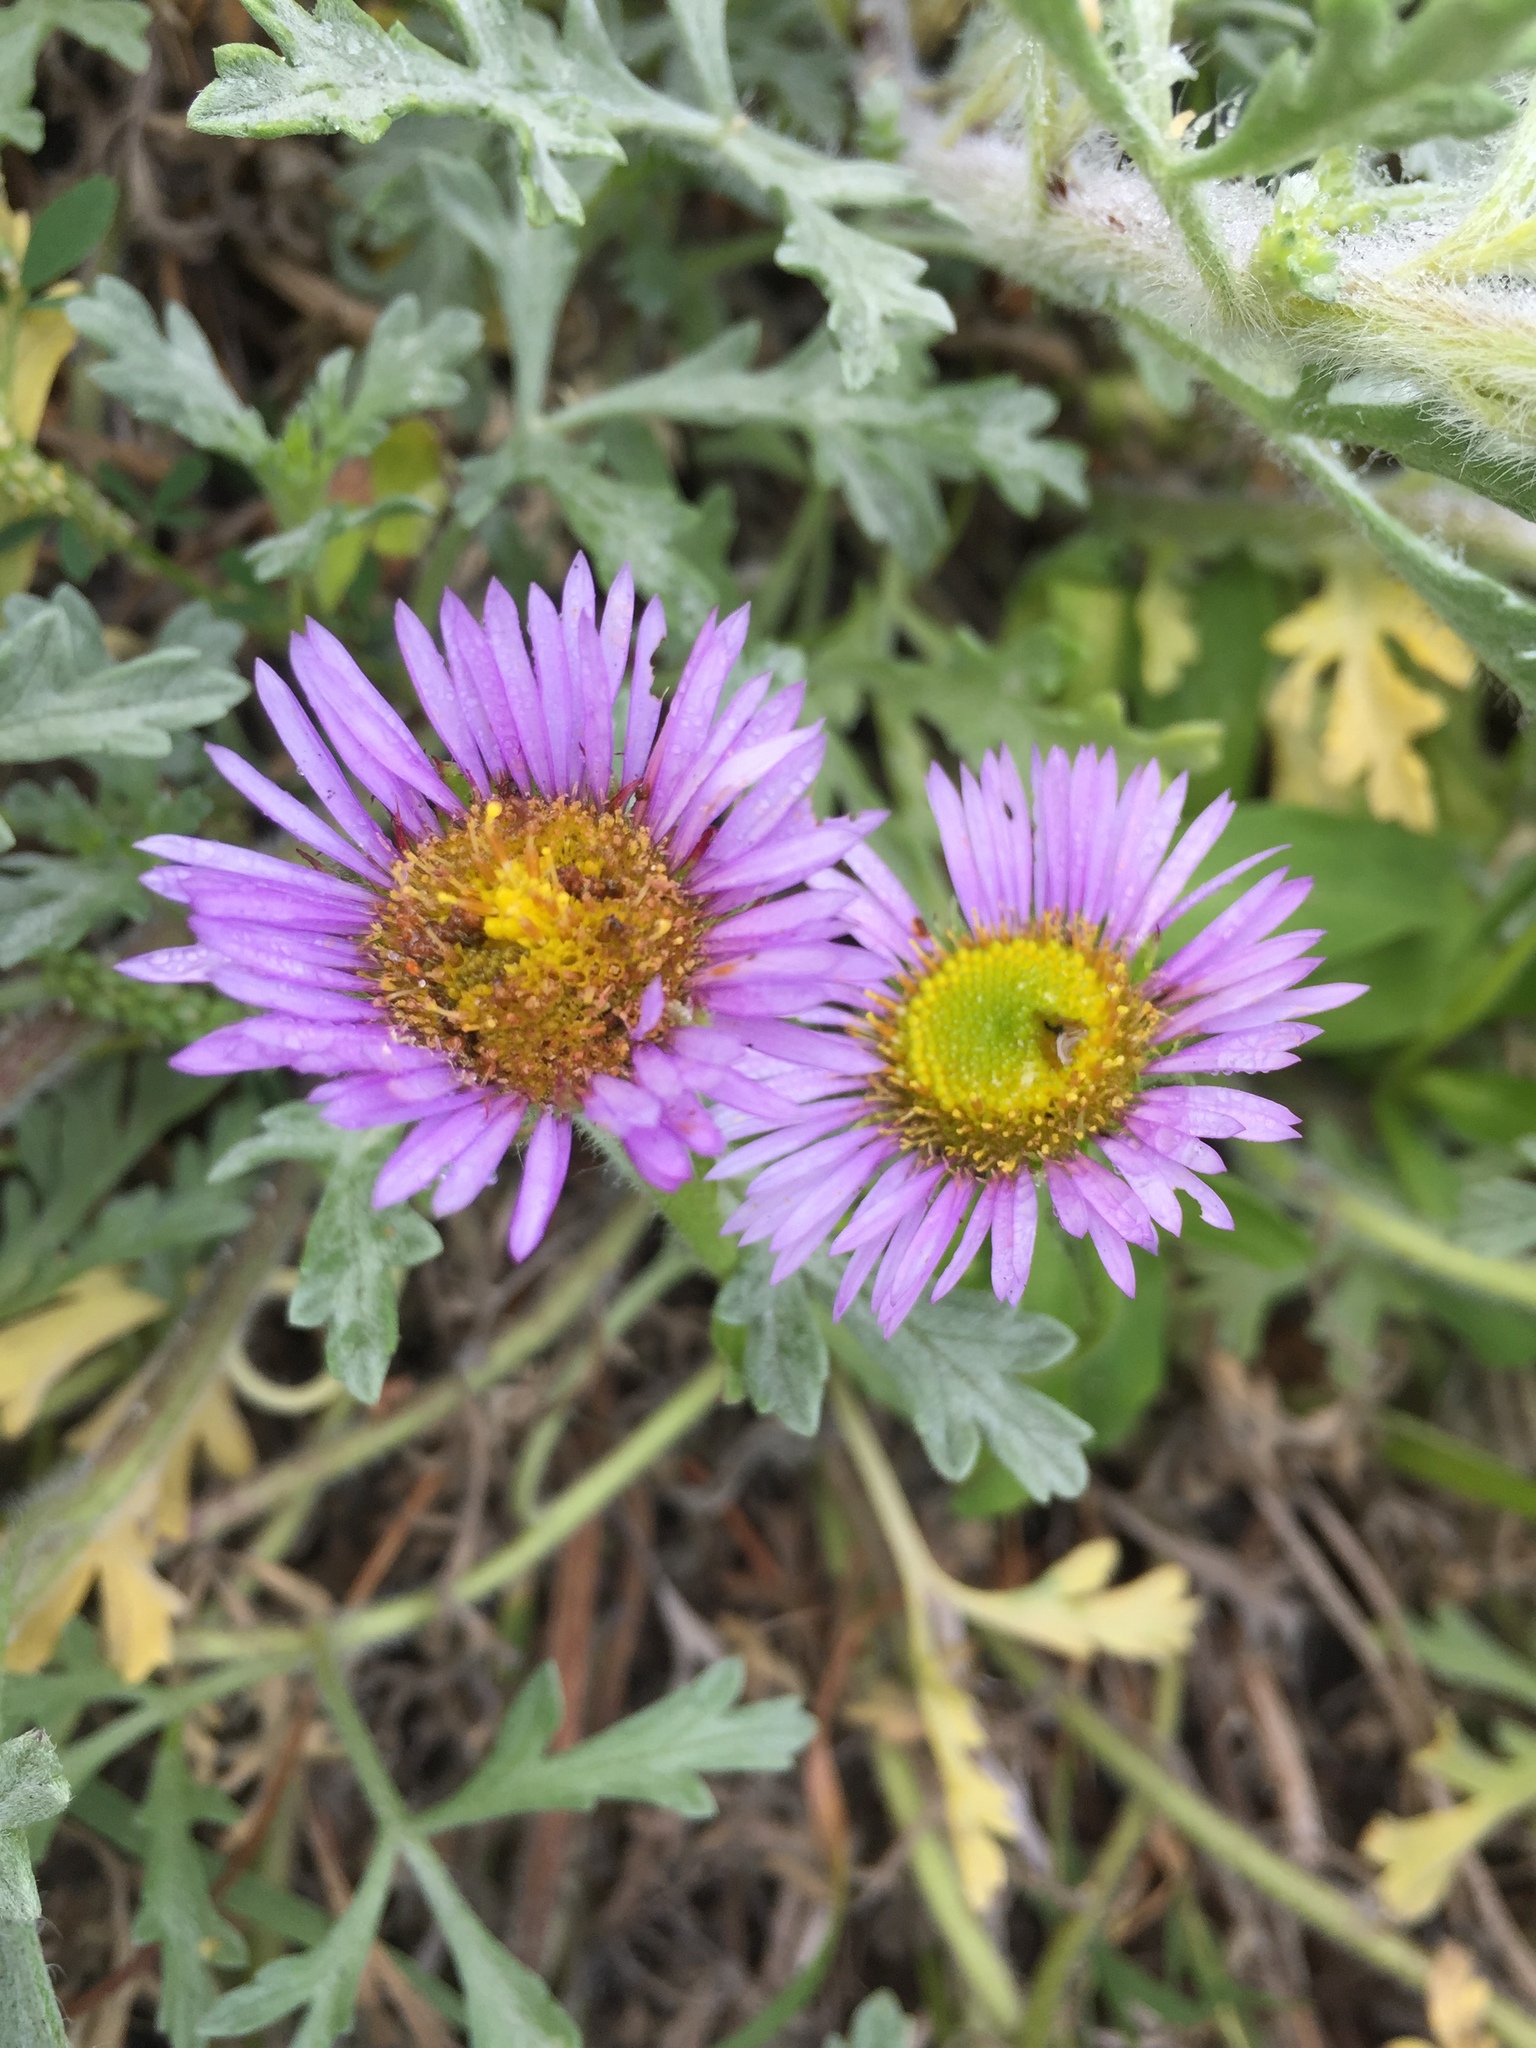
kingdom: Plantae
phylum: Tracheophyta
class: Magnoliopsida
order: Asterales
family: Asteraceae
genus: Erigeron
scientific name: Erigeron glaucus
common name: Seaside daisy
